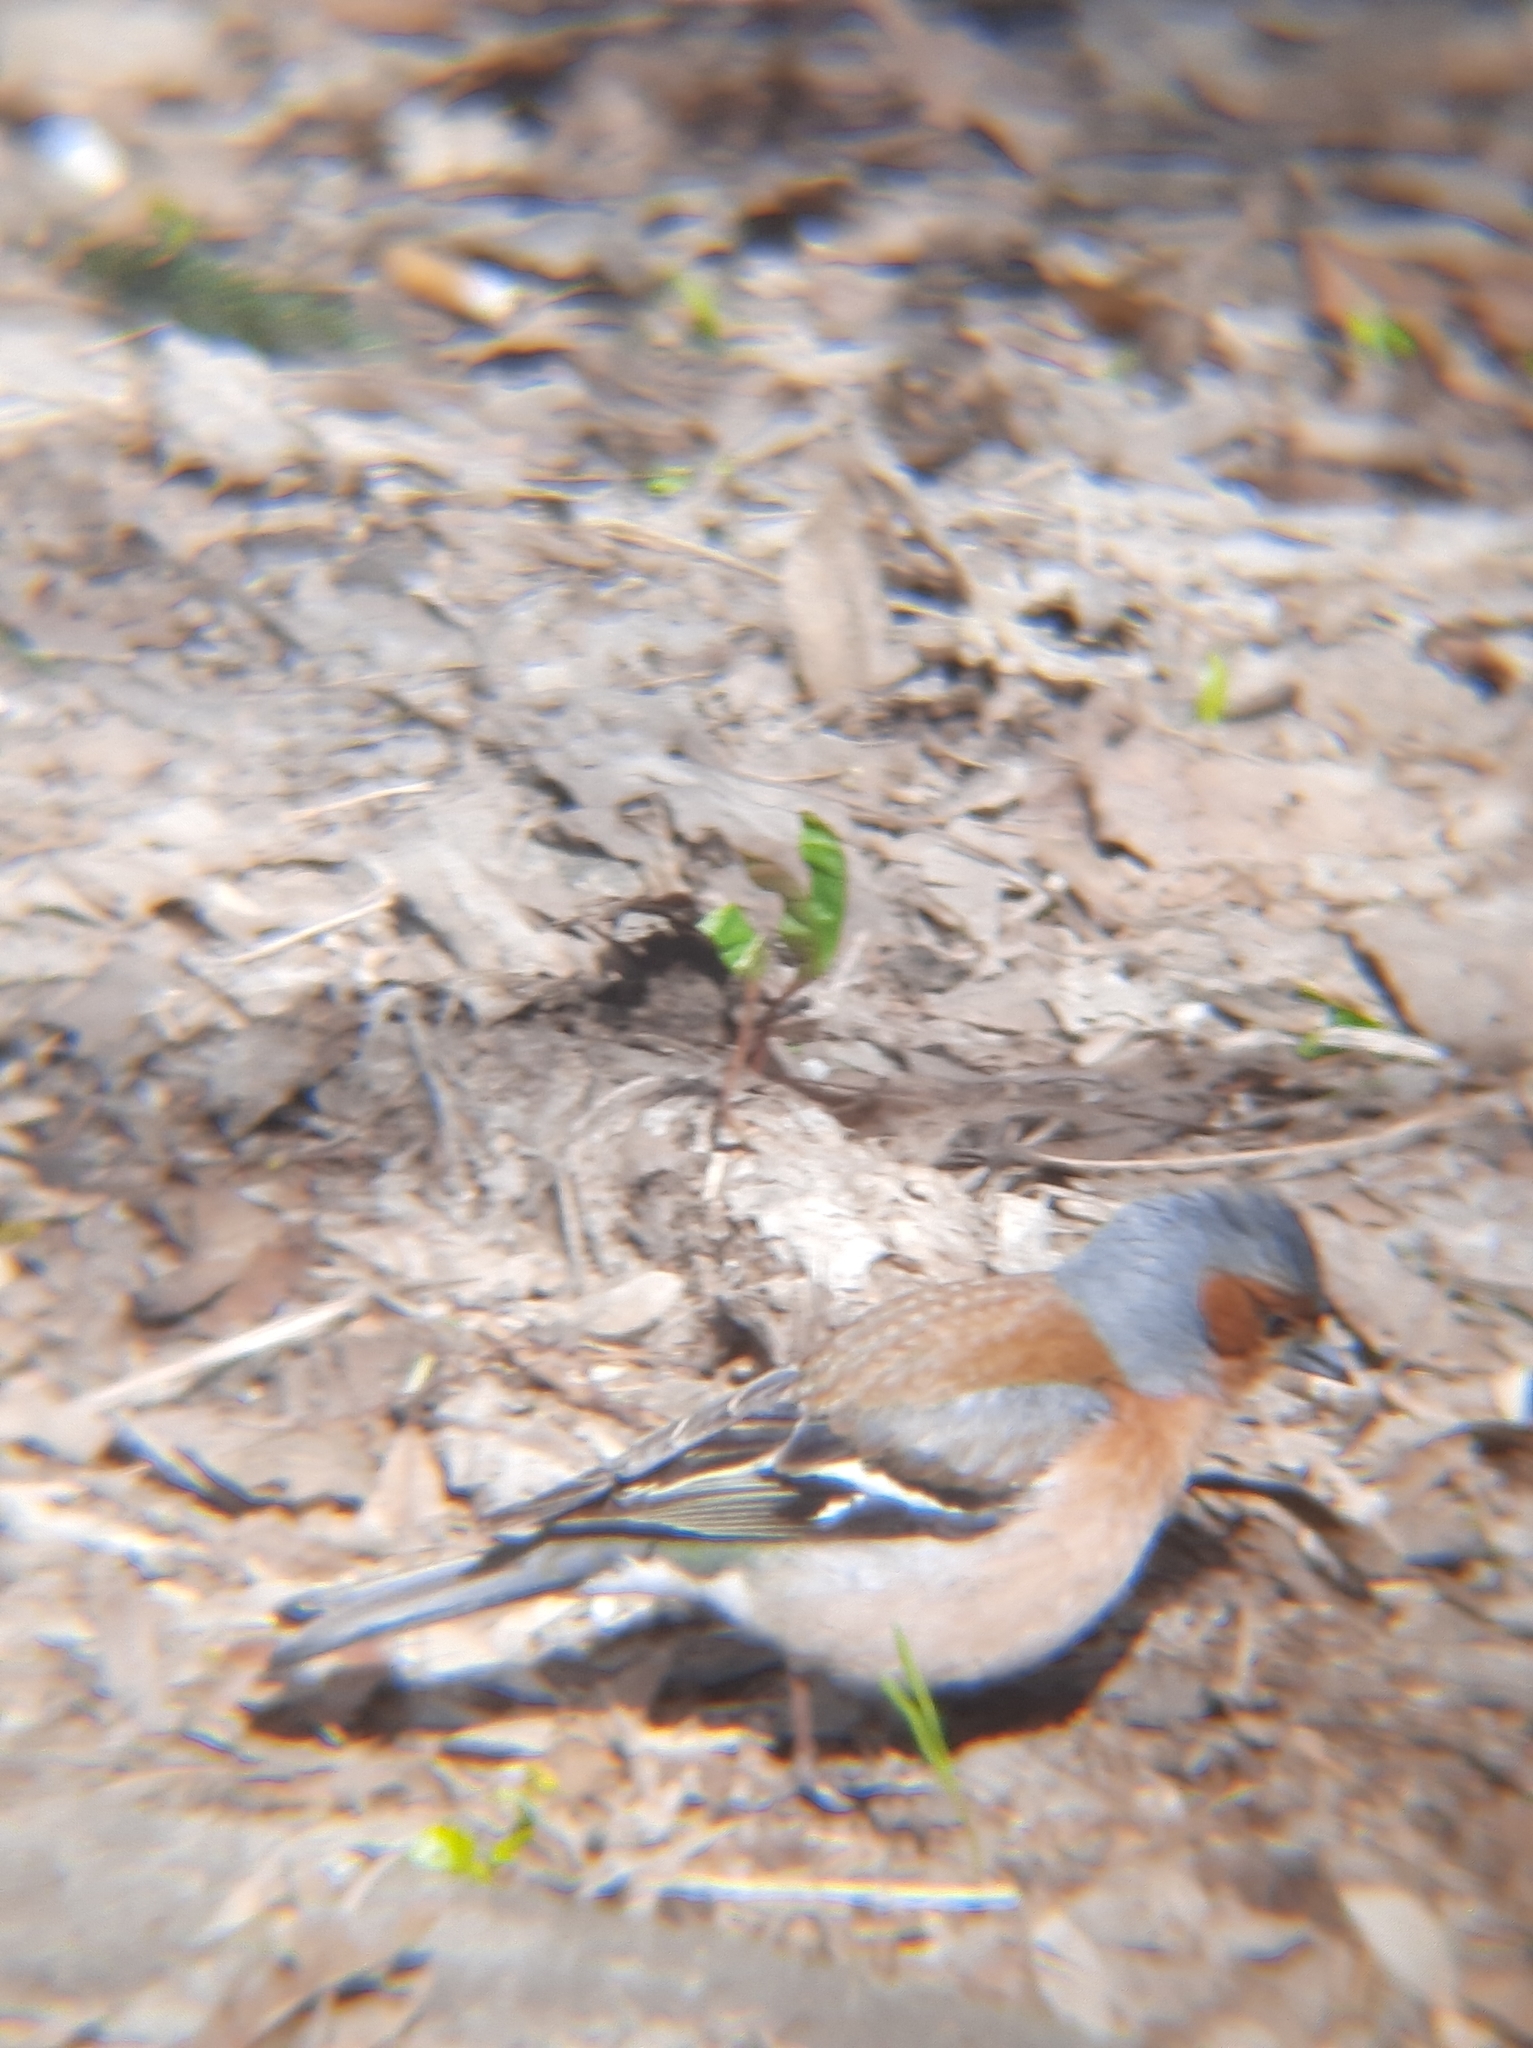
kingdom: Animalia
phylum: Chordata
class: Aves
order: Passeriformes
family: Fringillidae
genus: Fringilla
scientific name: Fringilla coelebs
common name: Common chaffinch
